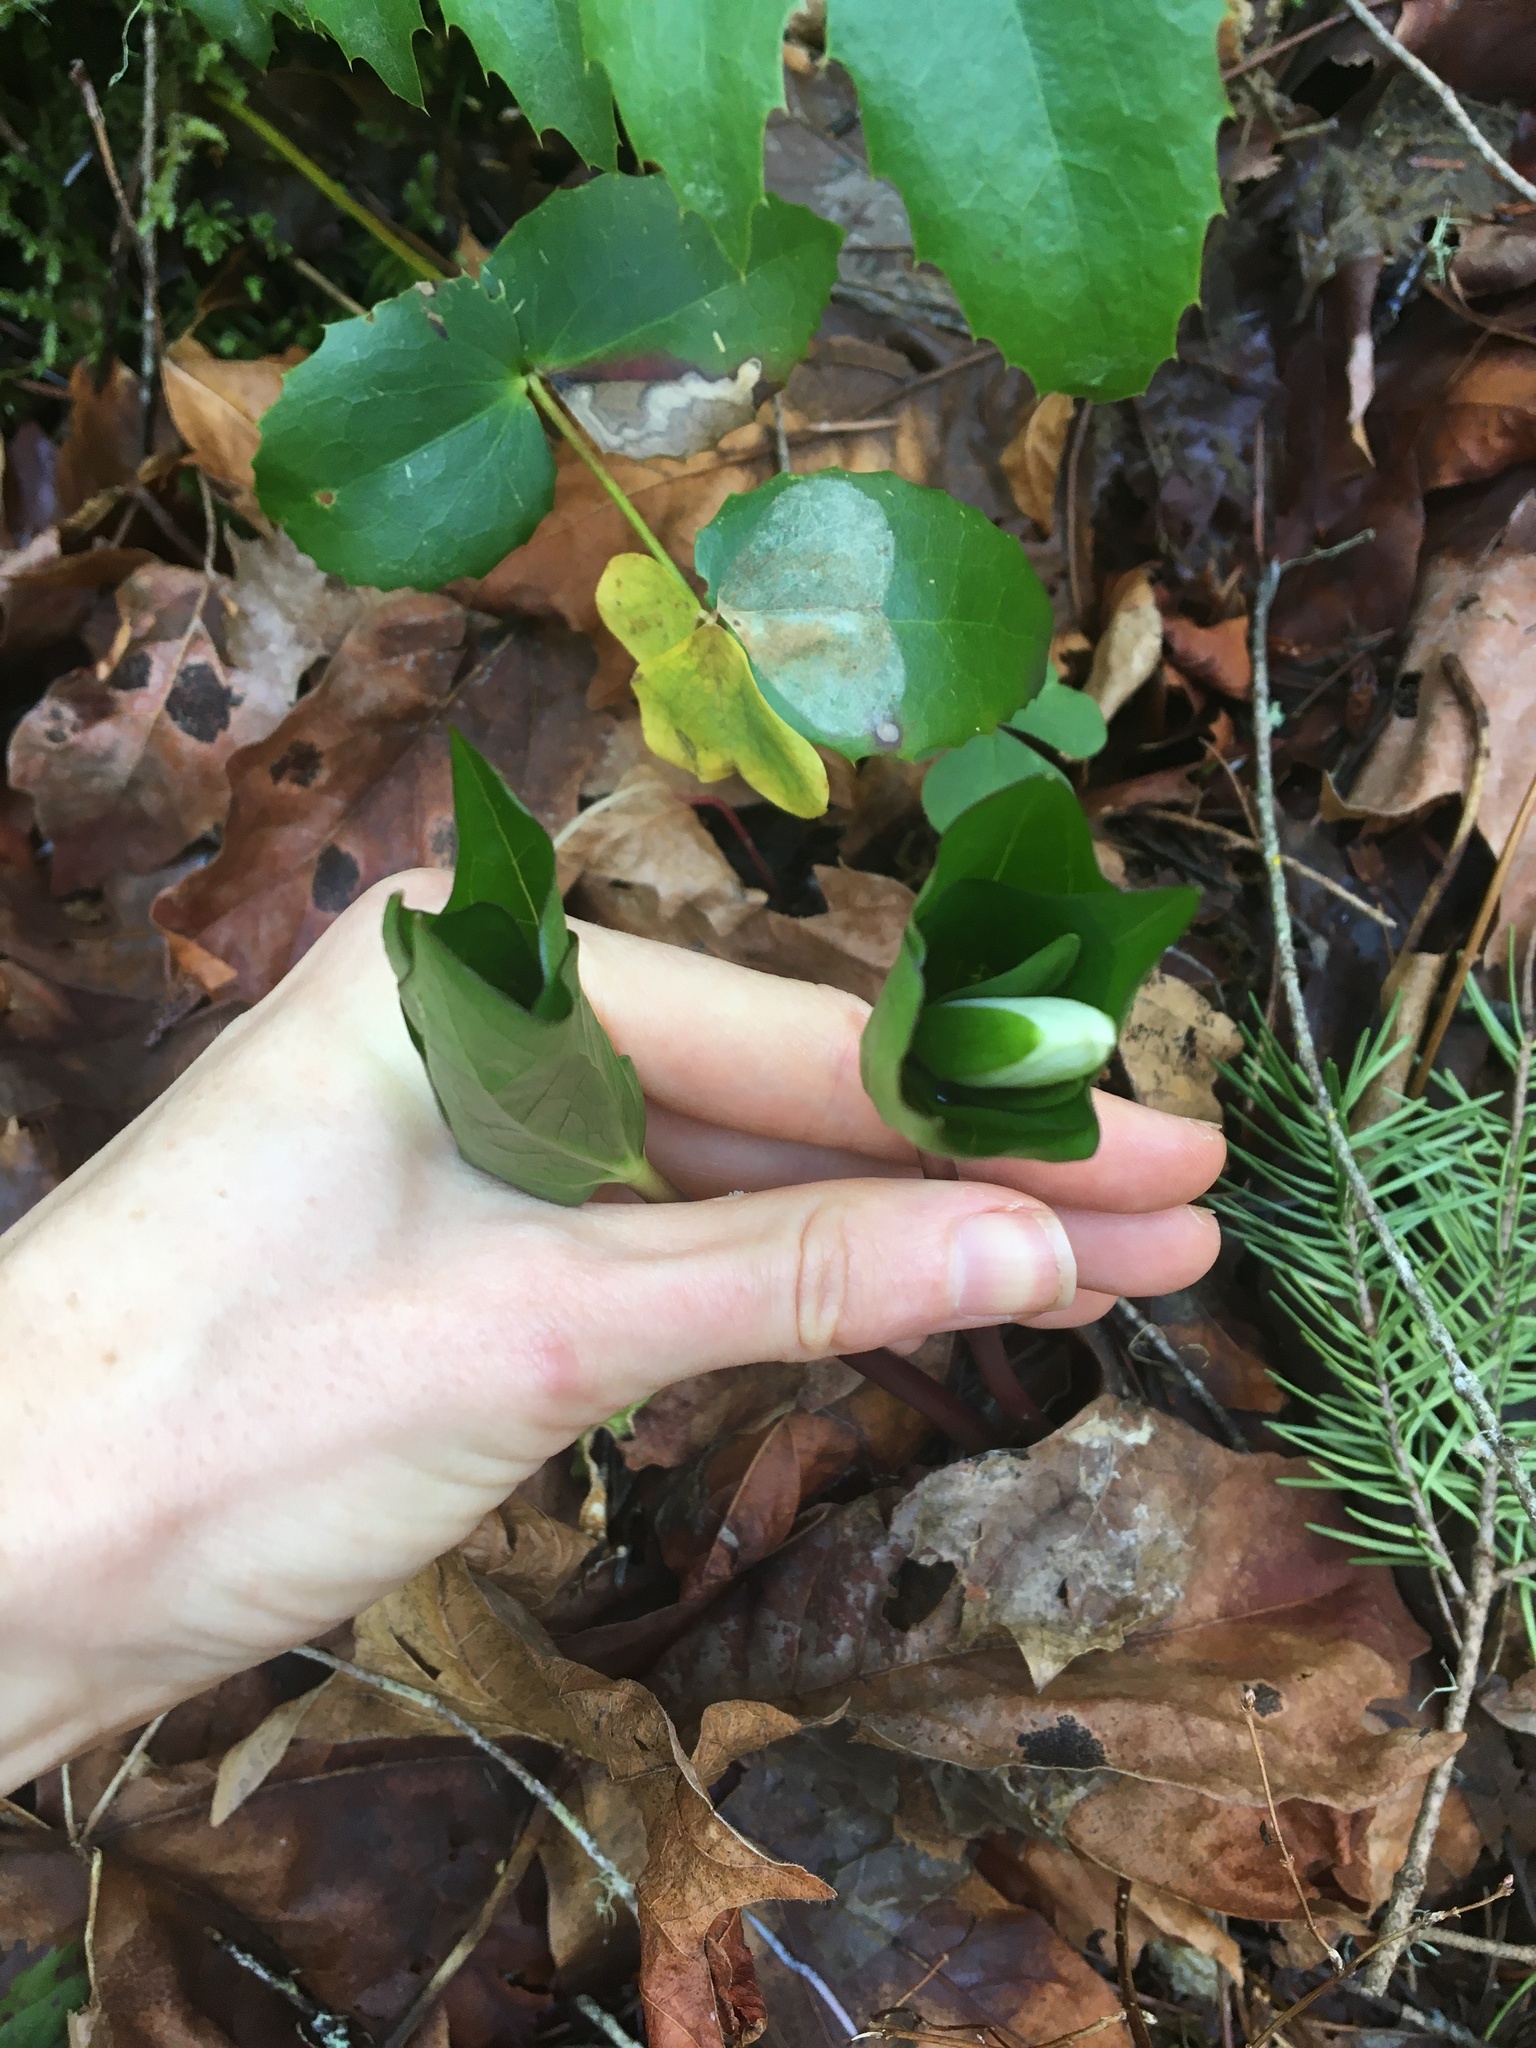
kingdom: Plantae
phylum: Tracheophyta
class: Liliopsida
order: Liliales
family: Melanthiaceae
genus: Trillium
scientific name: Trillium ovatum
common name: Pacific trillium
